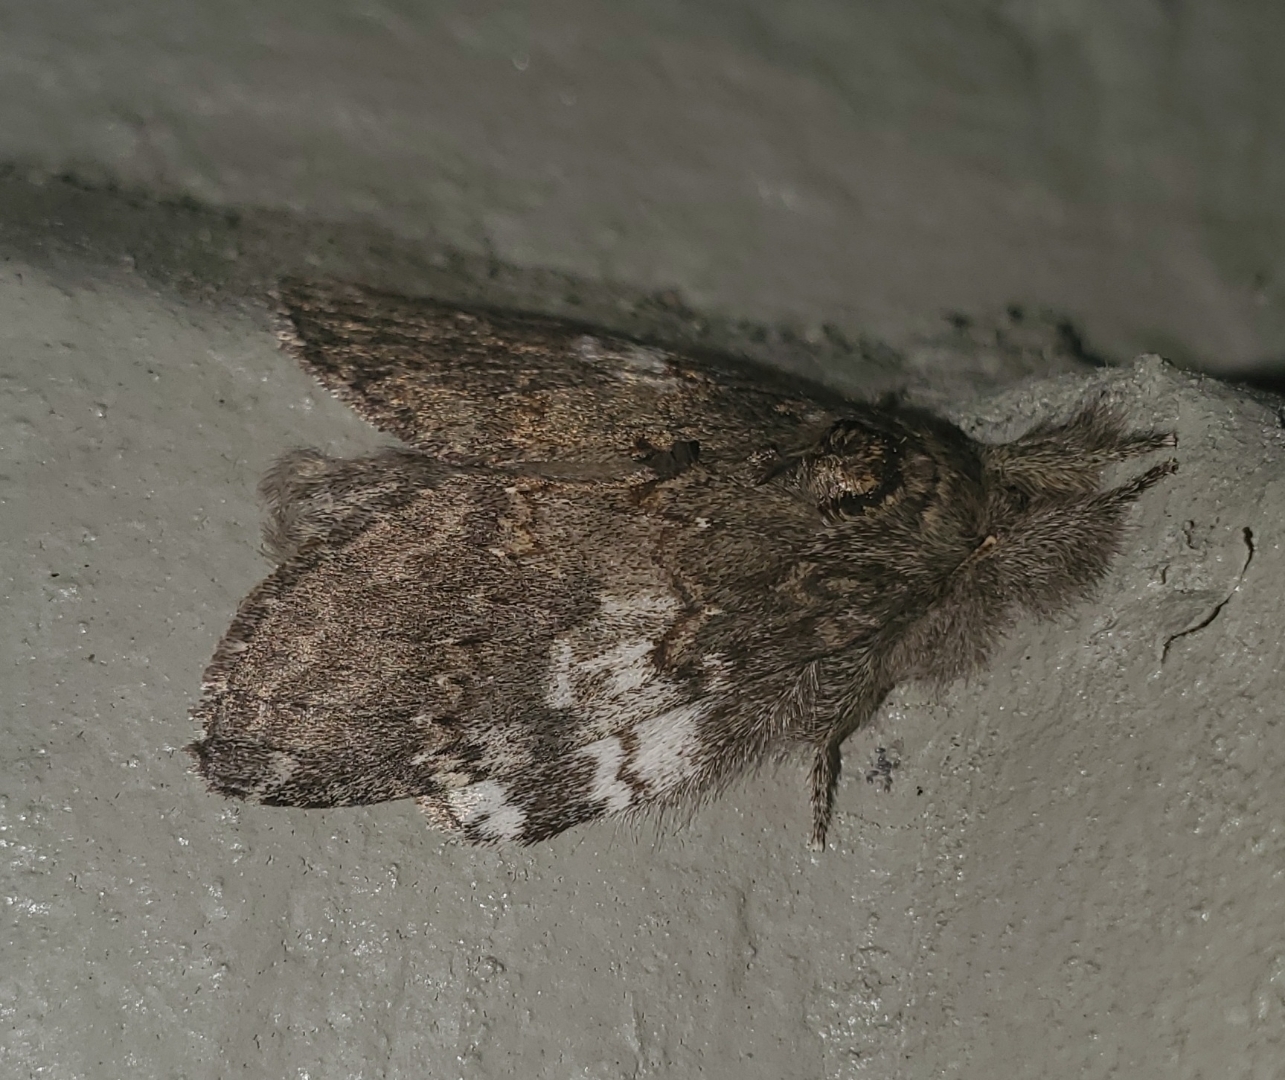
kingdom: Animalia
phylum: Arthropoda
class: Insecta
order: Lepidoptera
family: Notodontidae
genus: Peridea
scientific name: Peridea angulosa
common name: Angulose prominent
